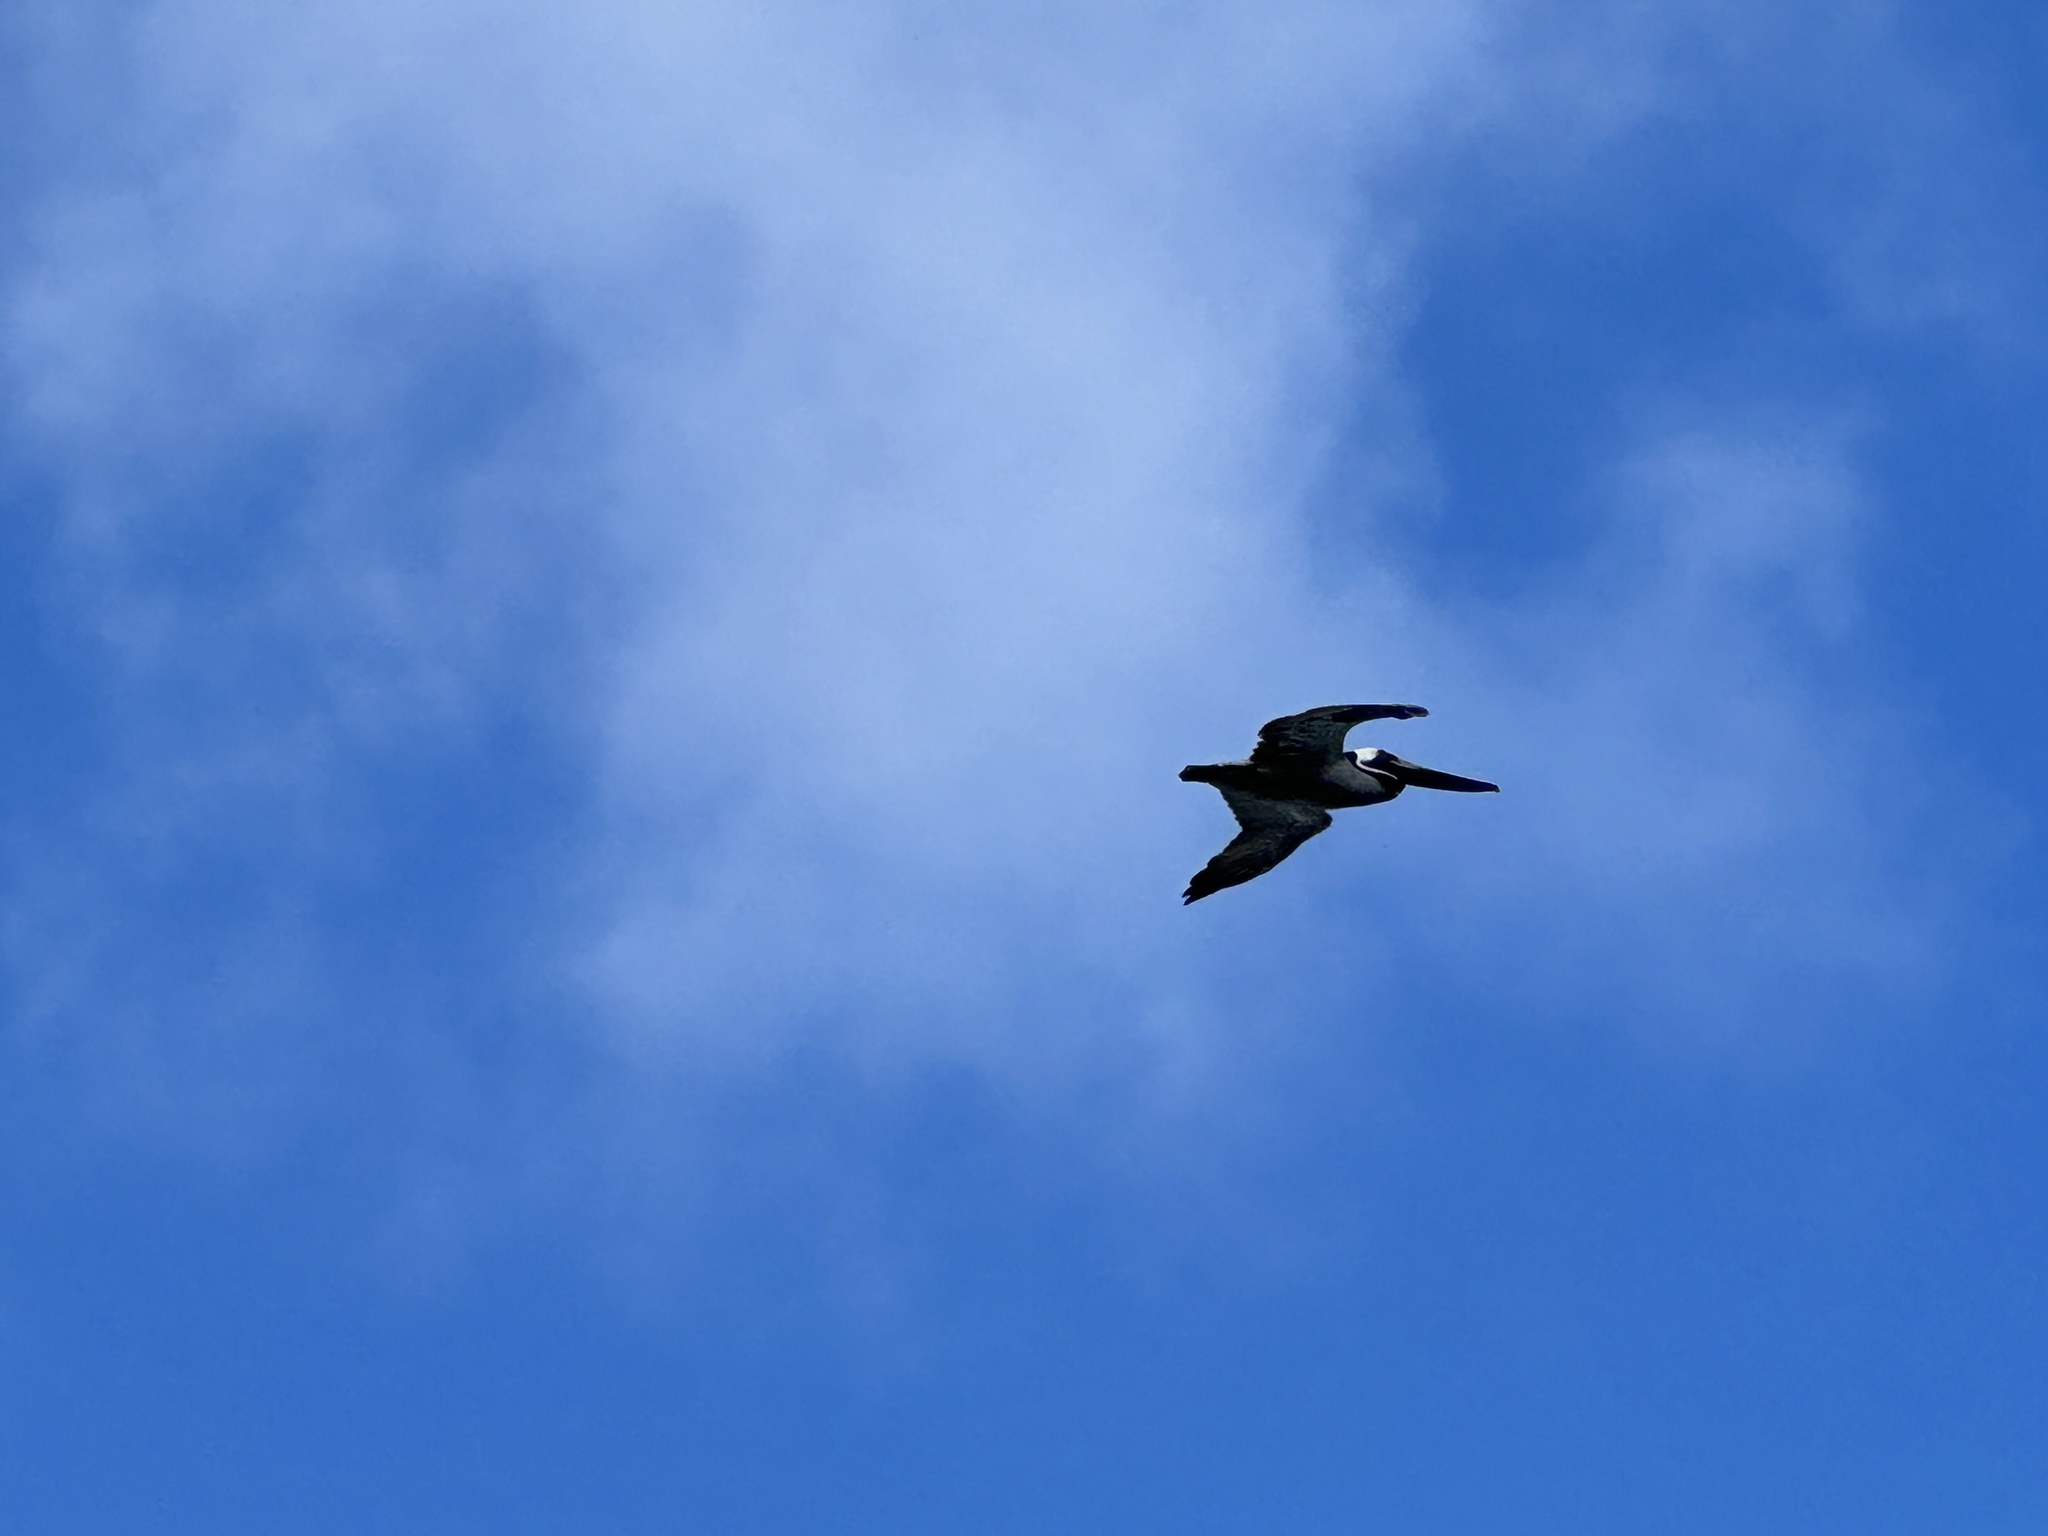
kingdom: Animalia
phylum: Chordata
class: Aves
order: Pelecaniformes
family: Pelecanidae
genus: Pelecanus
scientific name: Pelecanus occidentalis
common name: Brown pelican
